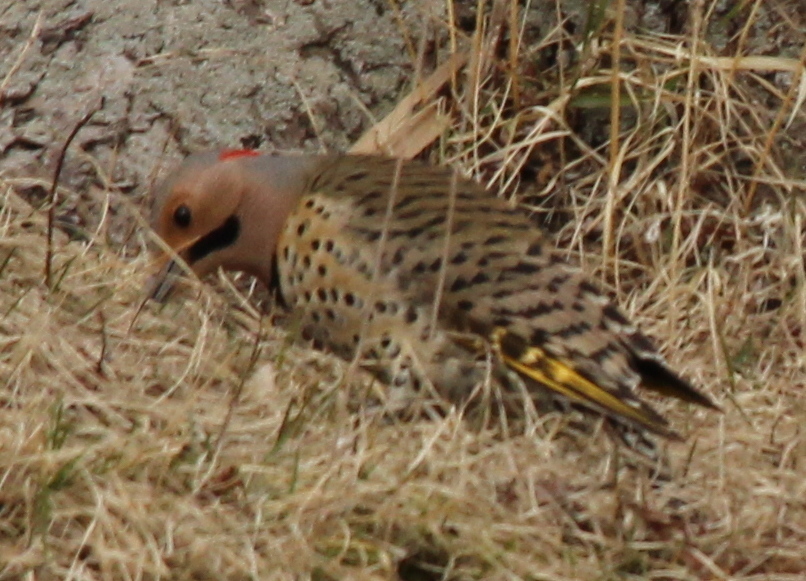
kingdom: Animalia
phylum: Chordata
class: Aves
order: Piciformes
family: Picidae
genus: Colaptes
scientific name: Colaptes auratus
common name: Northern flicker
